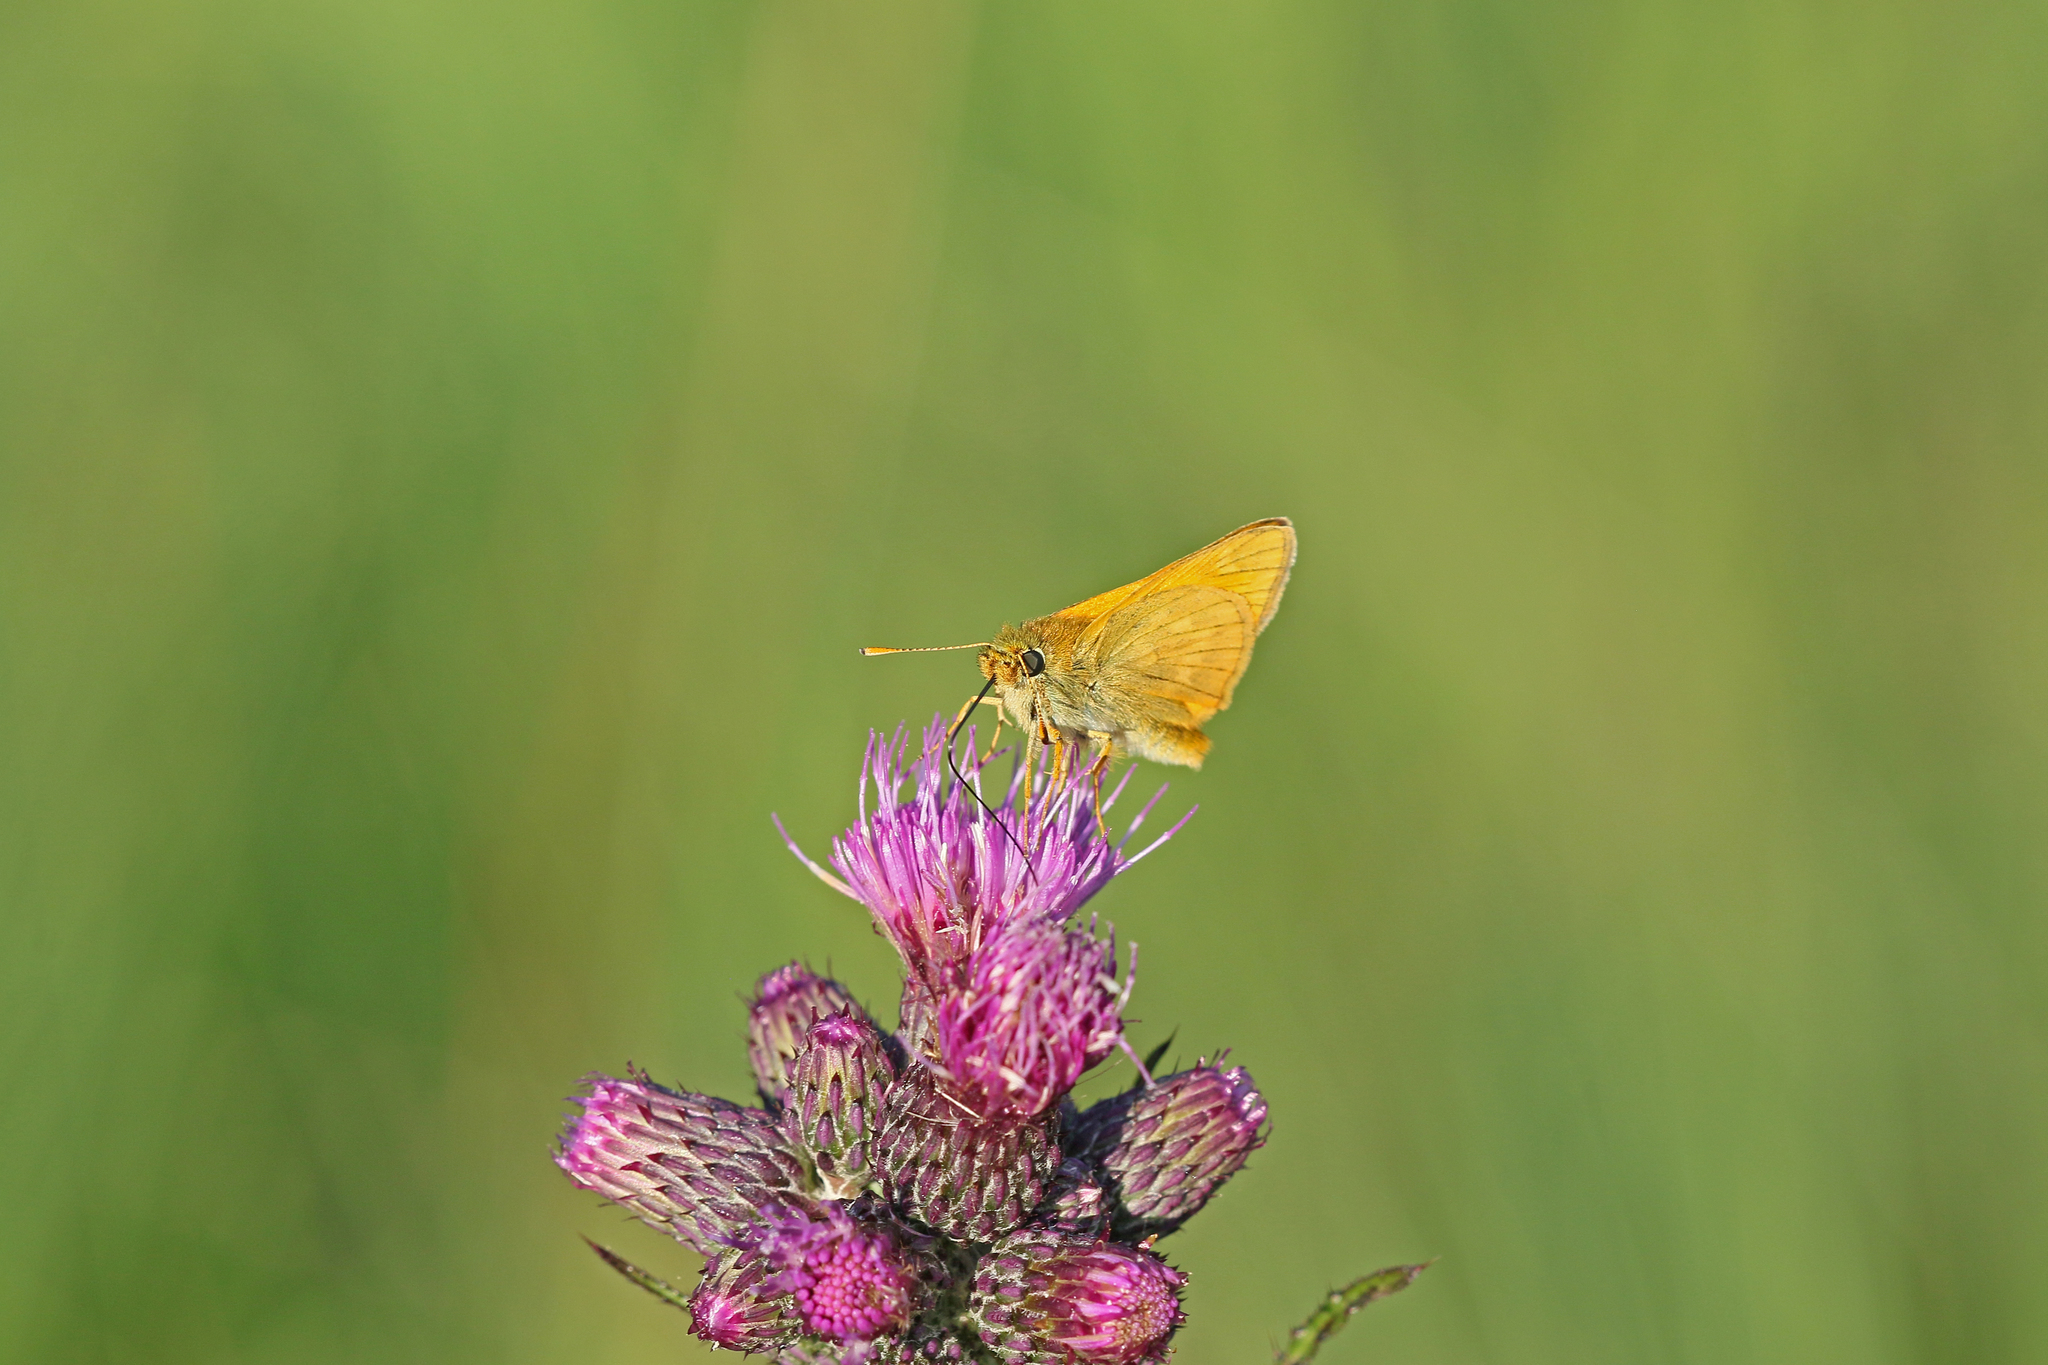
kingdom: Animalia
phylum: Arthropoda
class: Insecta
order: Lepidoptera
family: Hesperiidae
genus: Ochlodes
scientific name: Ochlodes venata
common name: Large skipper
